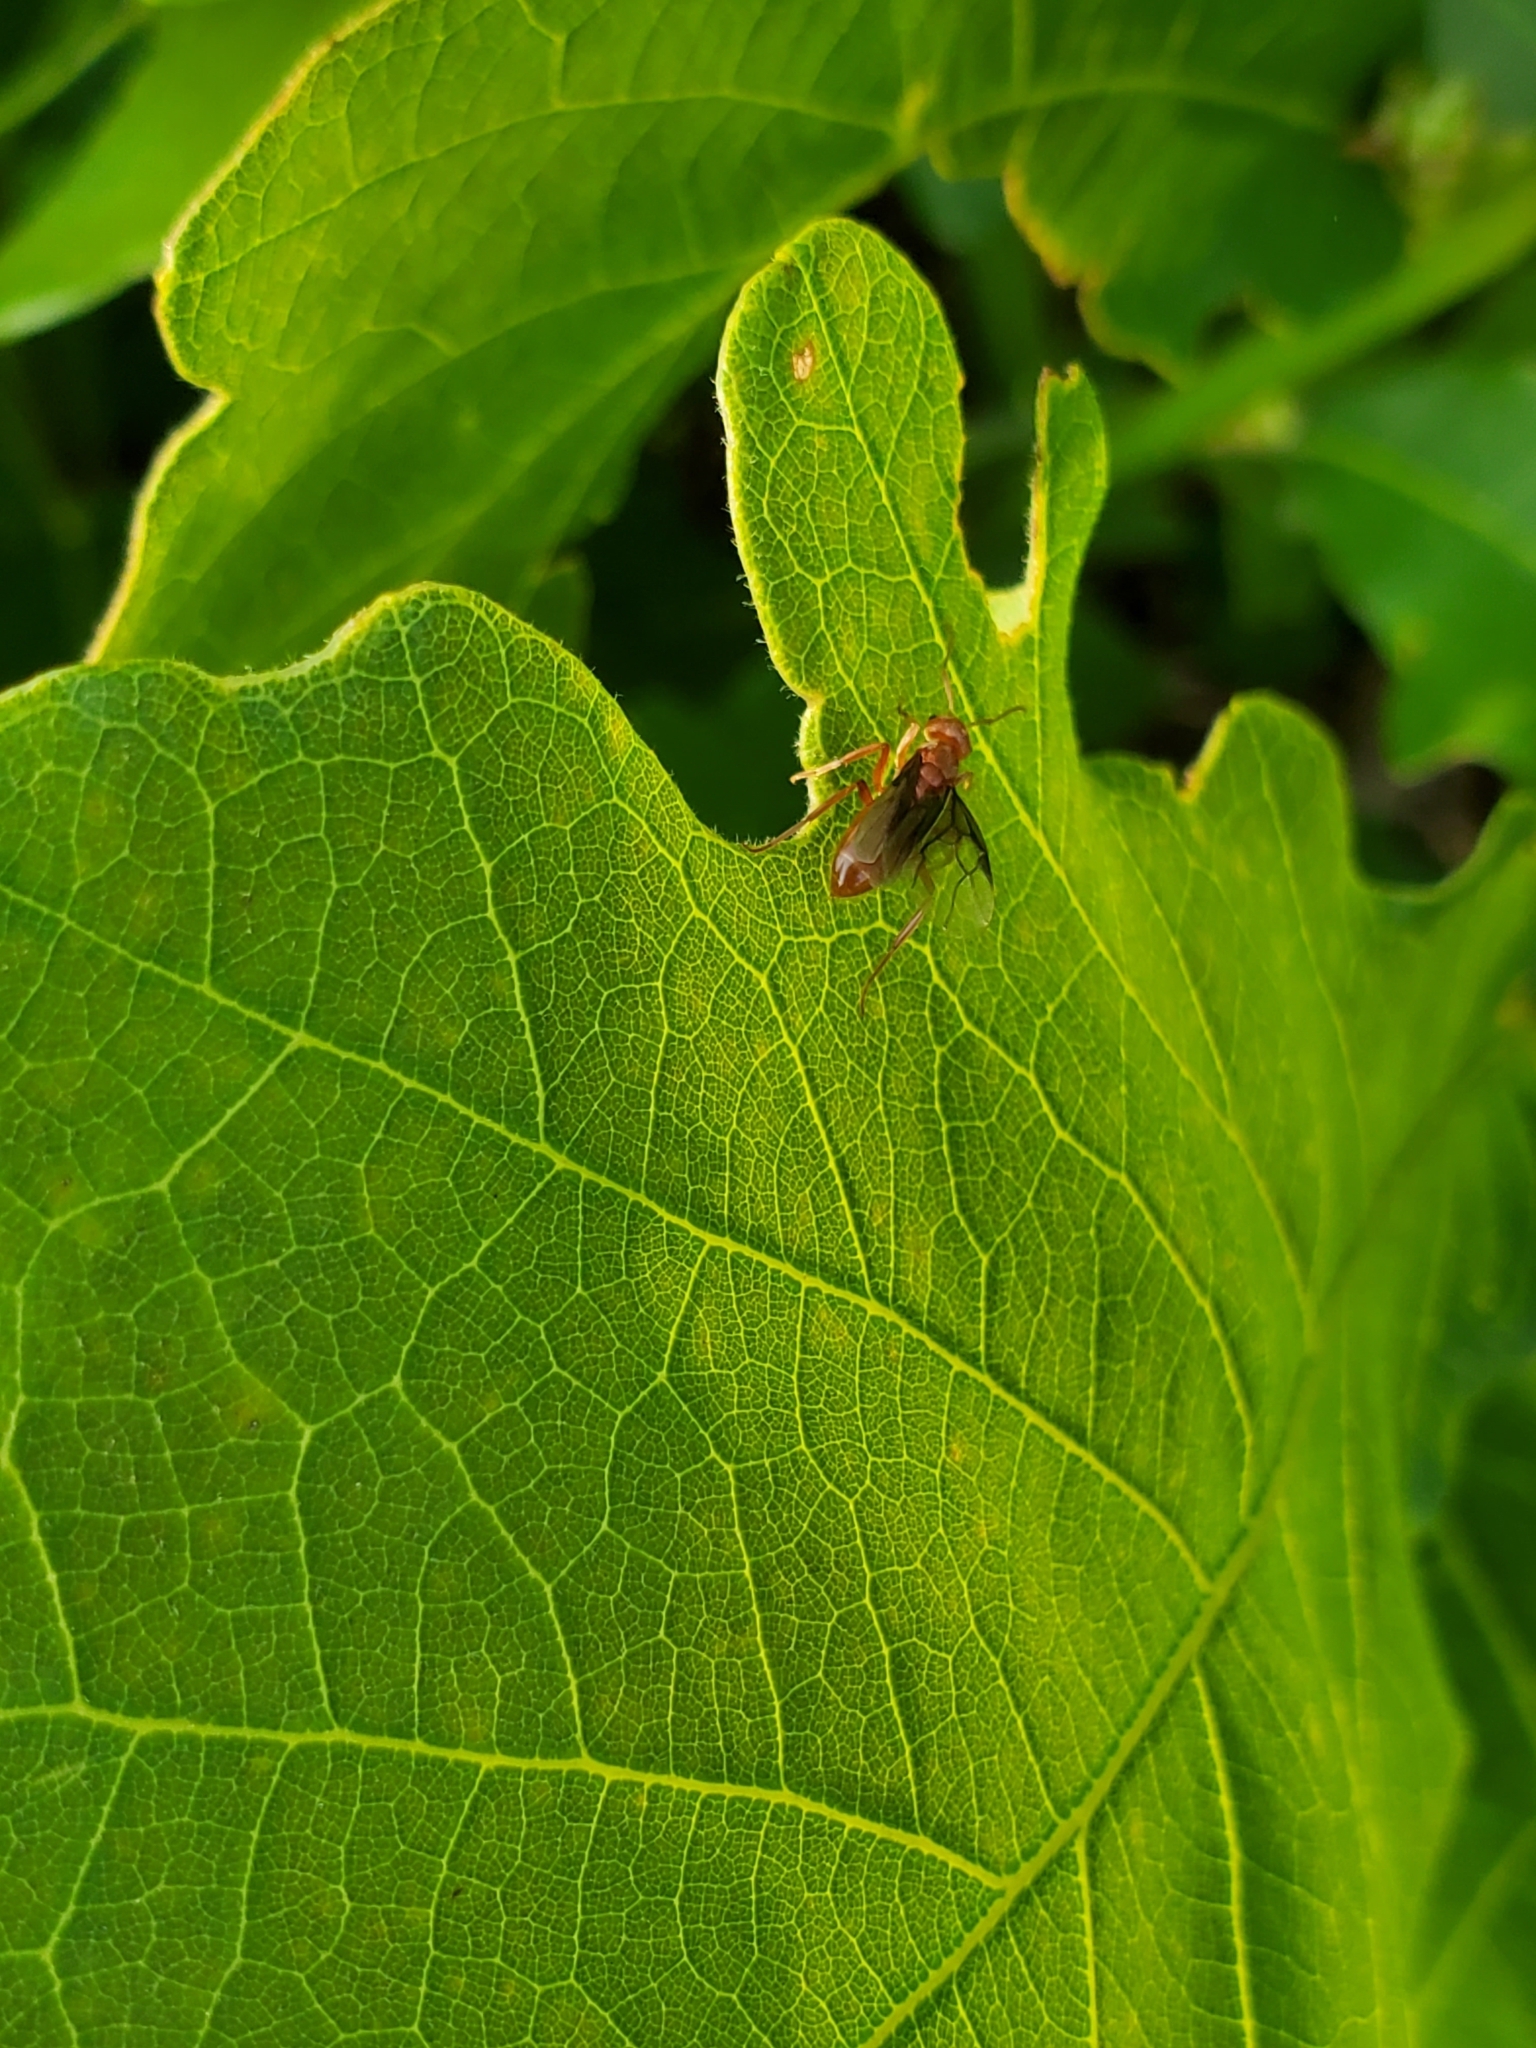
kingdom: Animalia
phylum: Arthropoda
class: Insecta
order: Hymenoptera
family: Formicidae
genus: Lasius
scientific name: Lasius subumbratus
